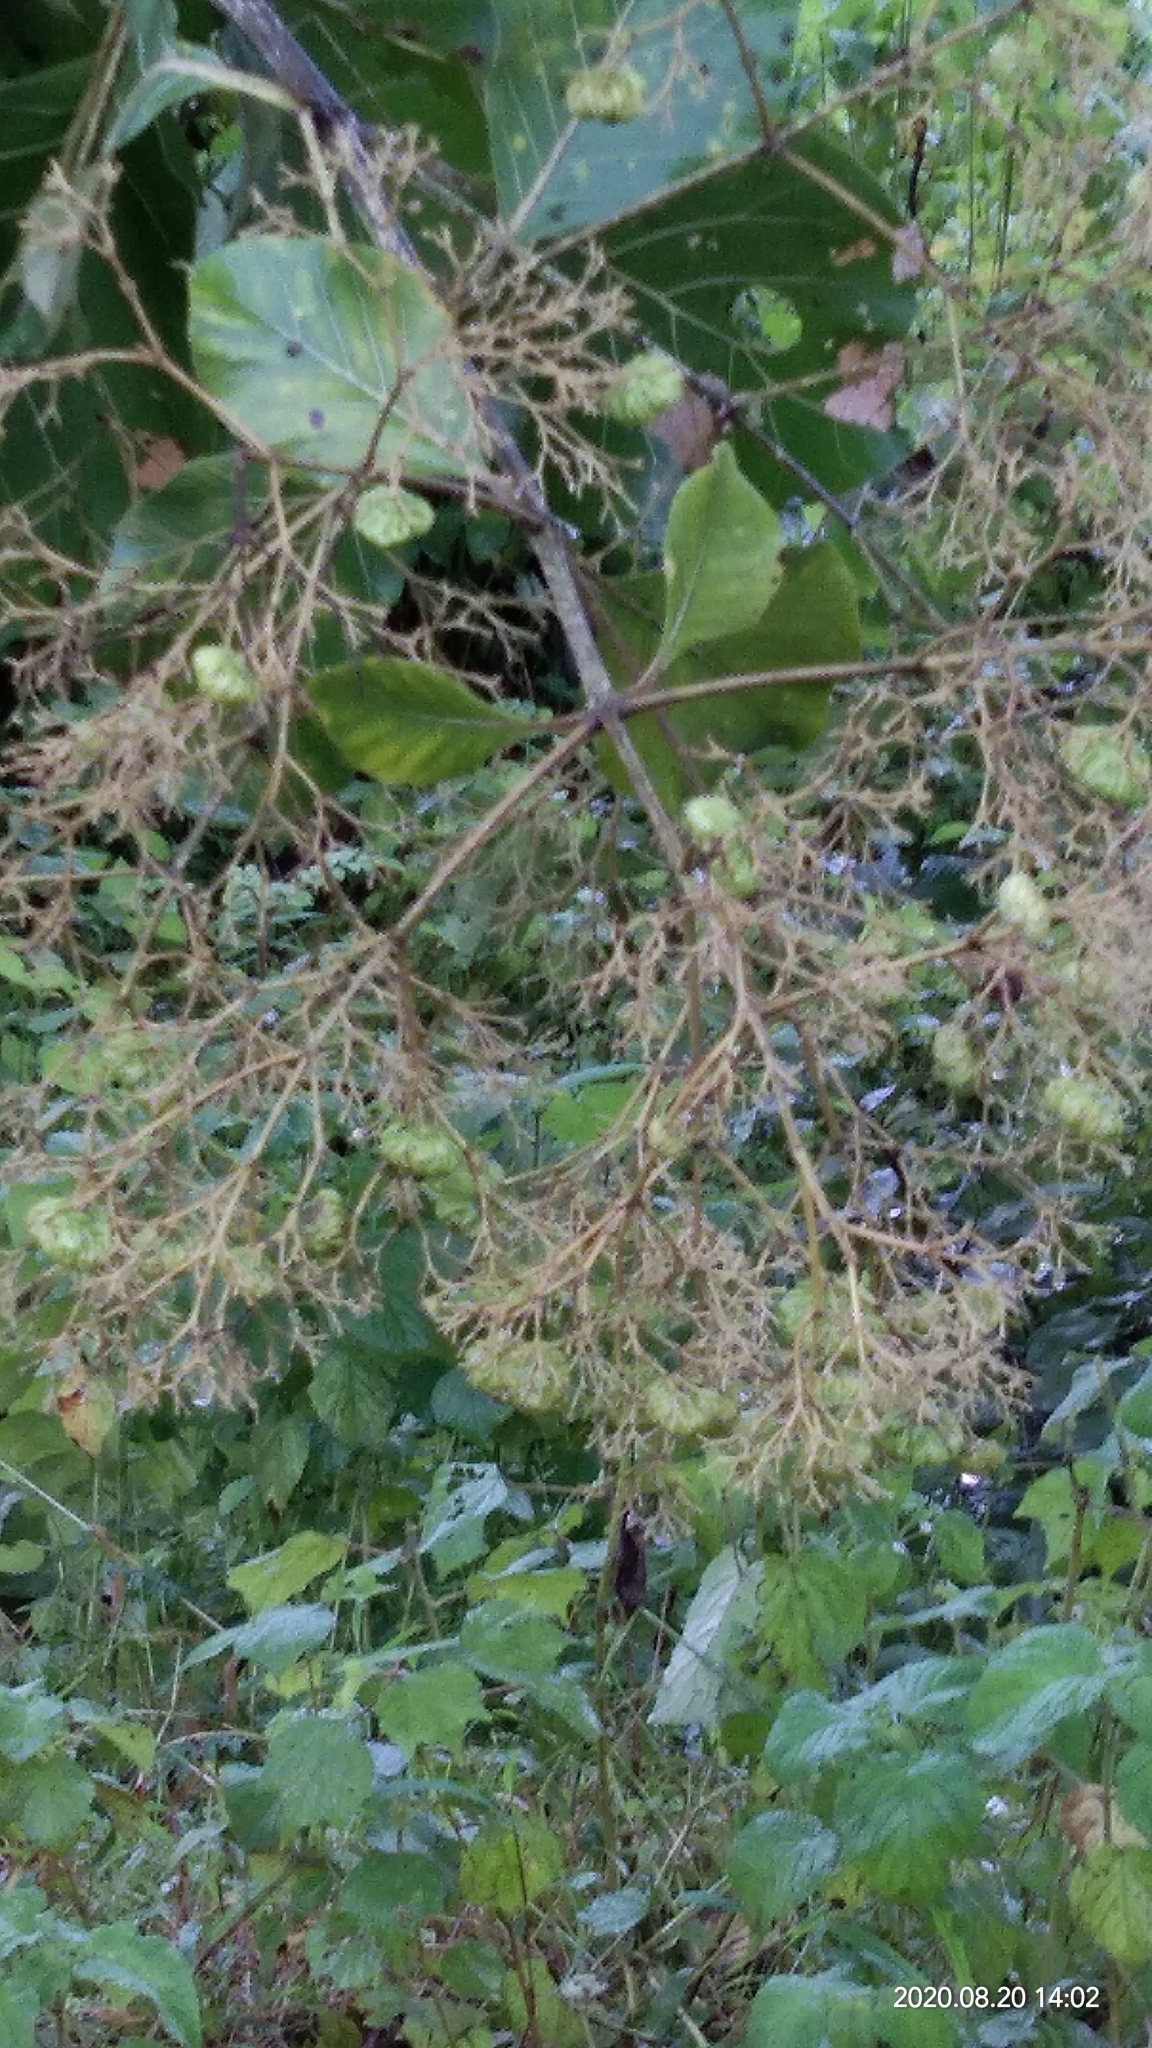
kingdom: Plantae
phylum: Tracheophyta
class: Magnoliopsida
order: Lamiales
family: Lamiaceae
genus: Tectona
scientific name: Tectona grandis
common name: Teak
